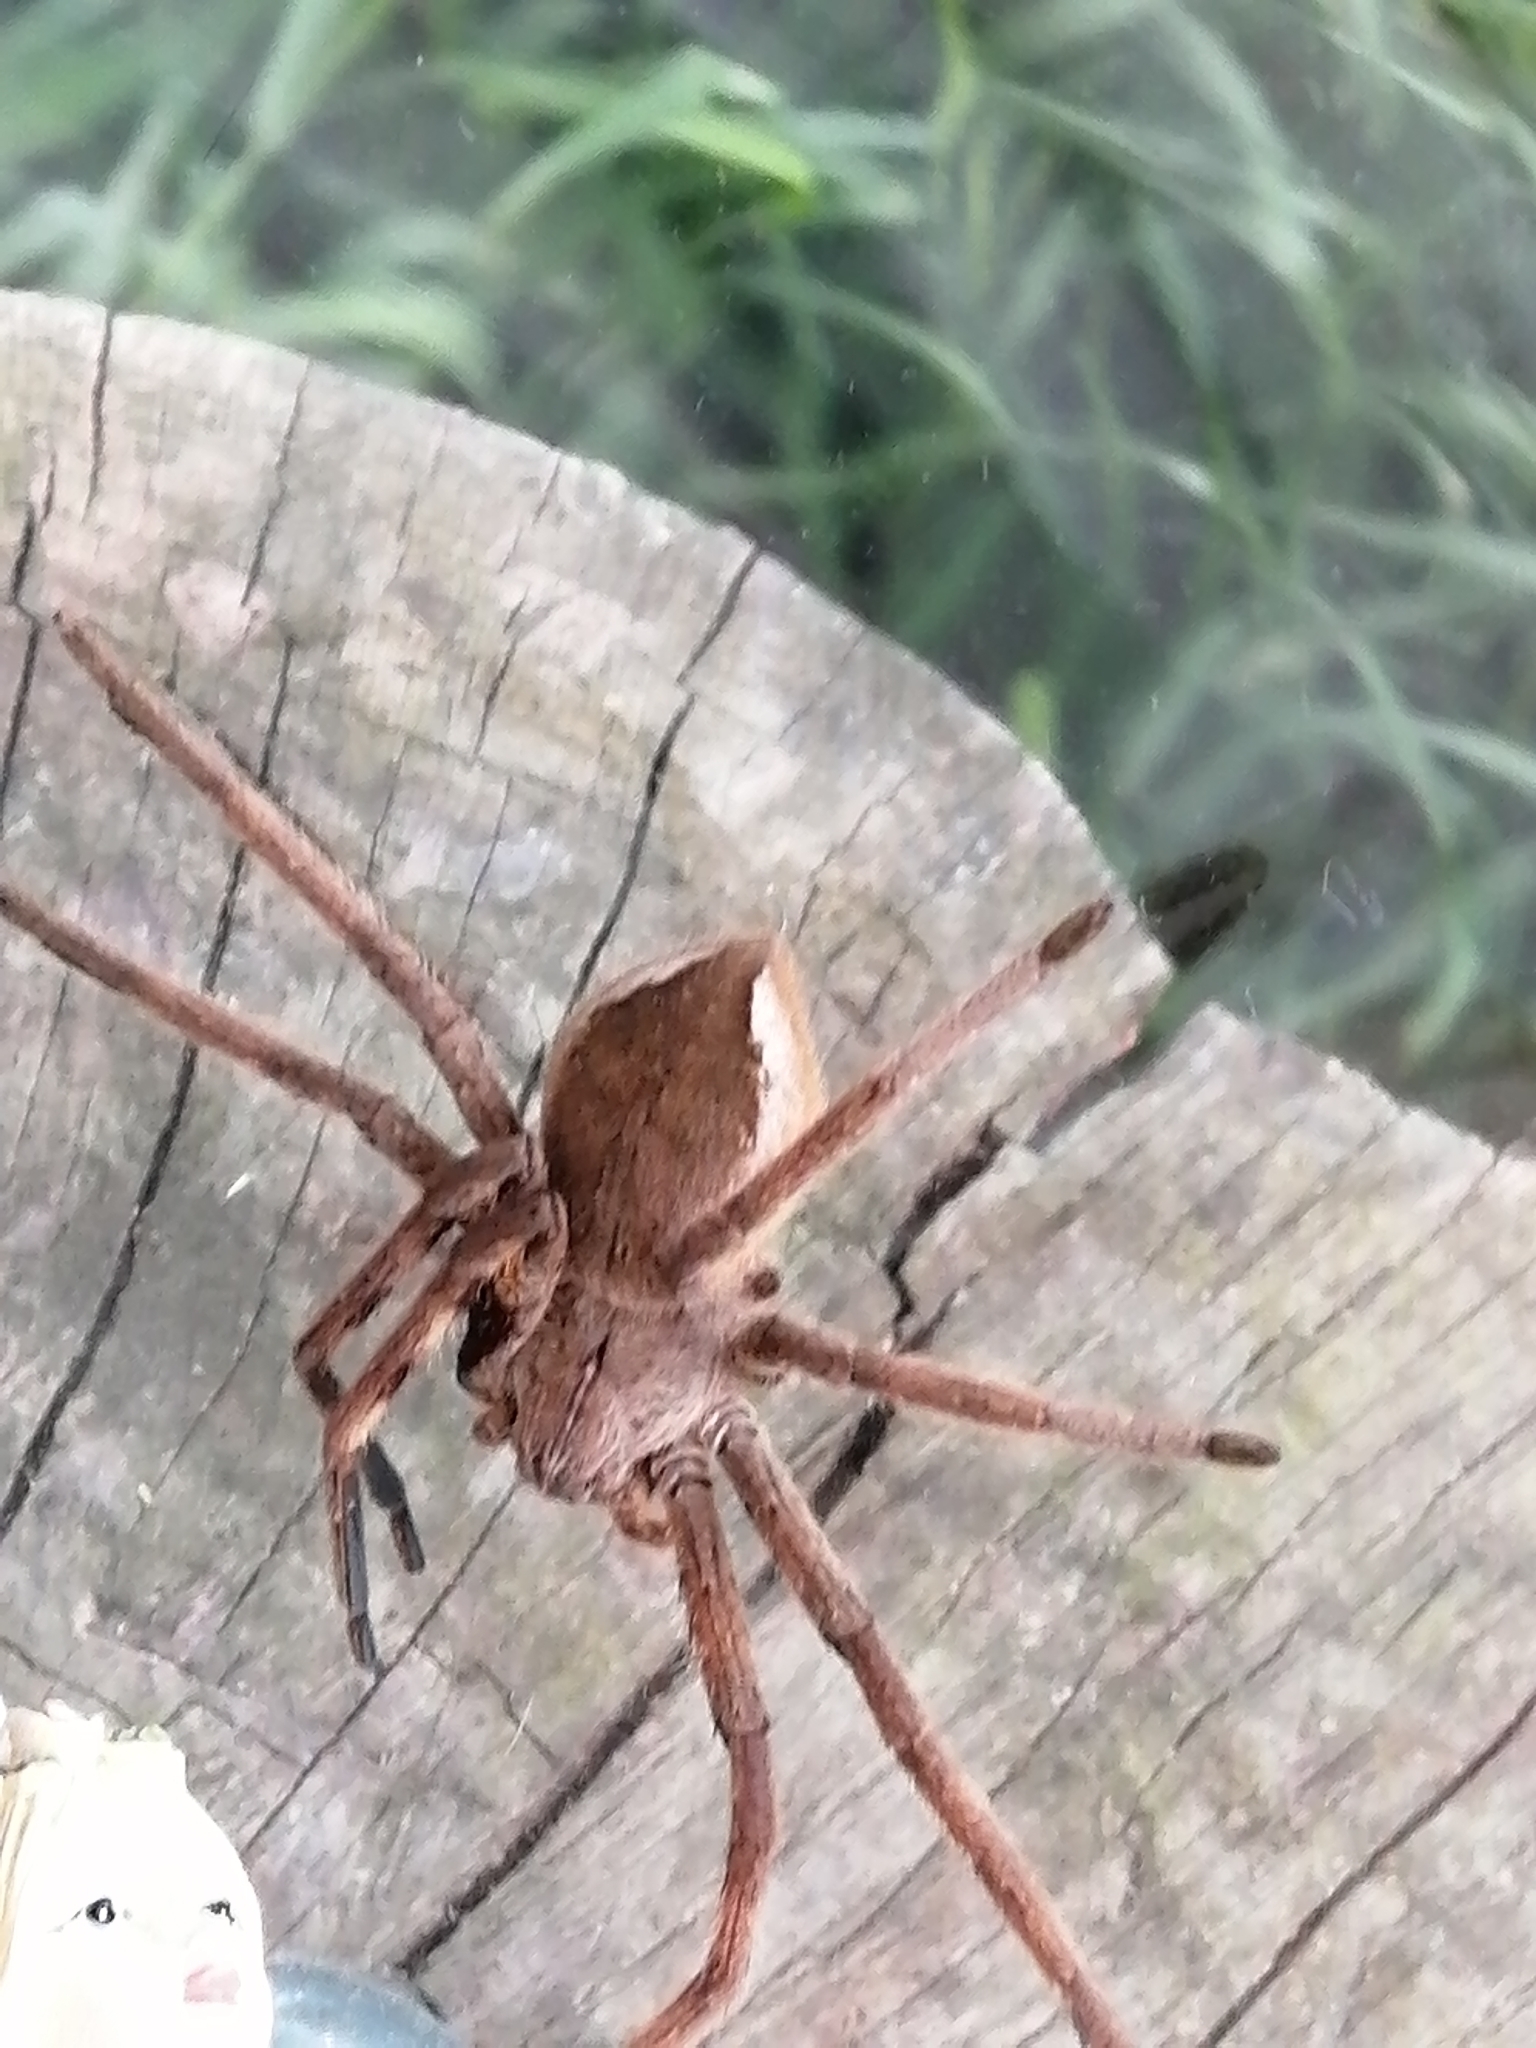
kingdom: Animalia
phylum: Arthropoda
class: Arachnida
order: Araneae
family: Sparassidae
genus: Palystes
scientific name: Palystes castaneus
